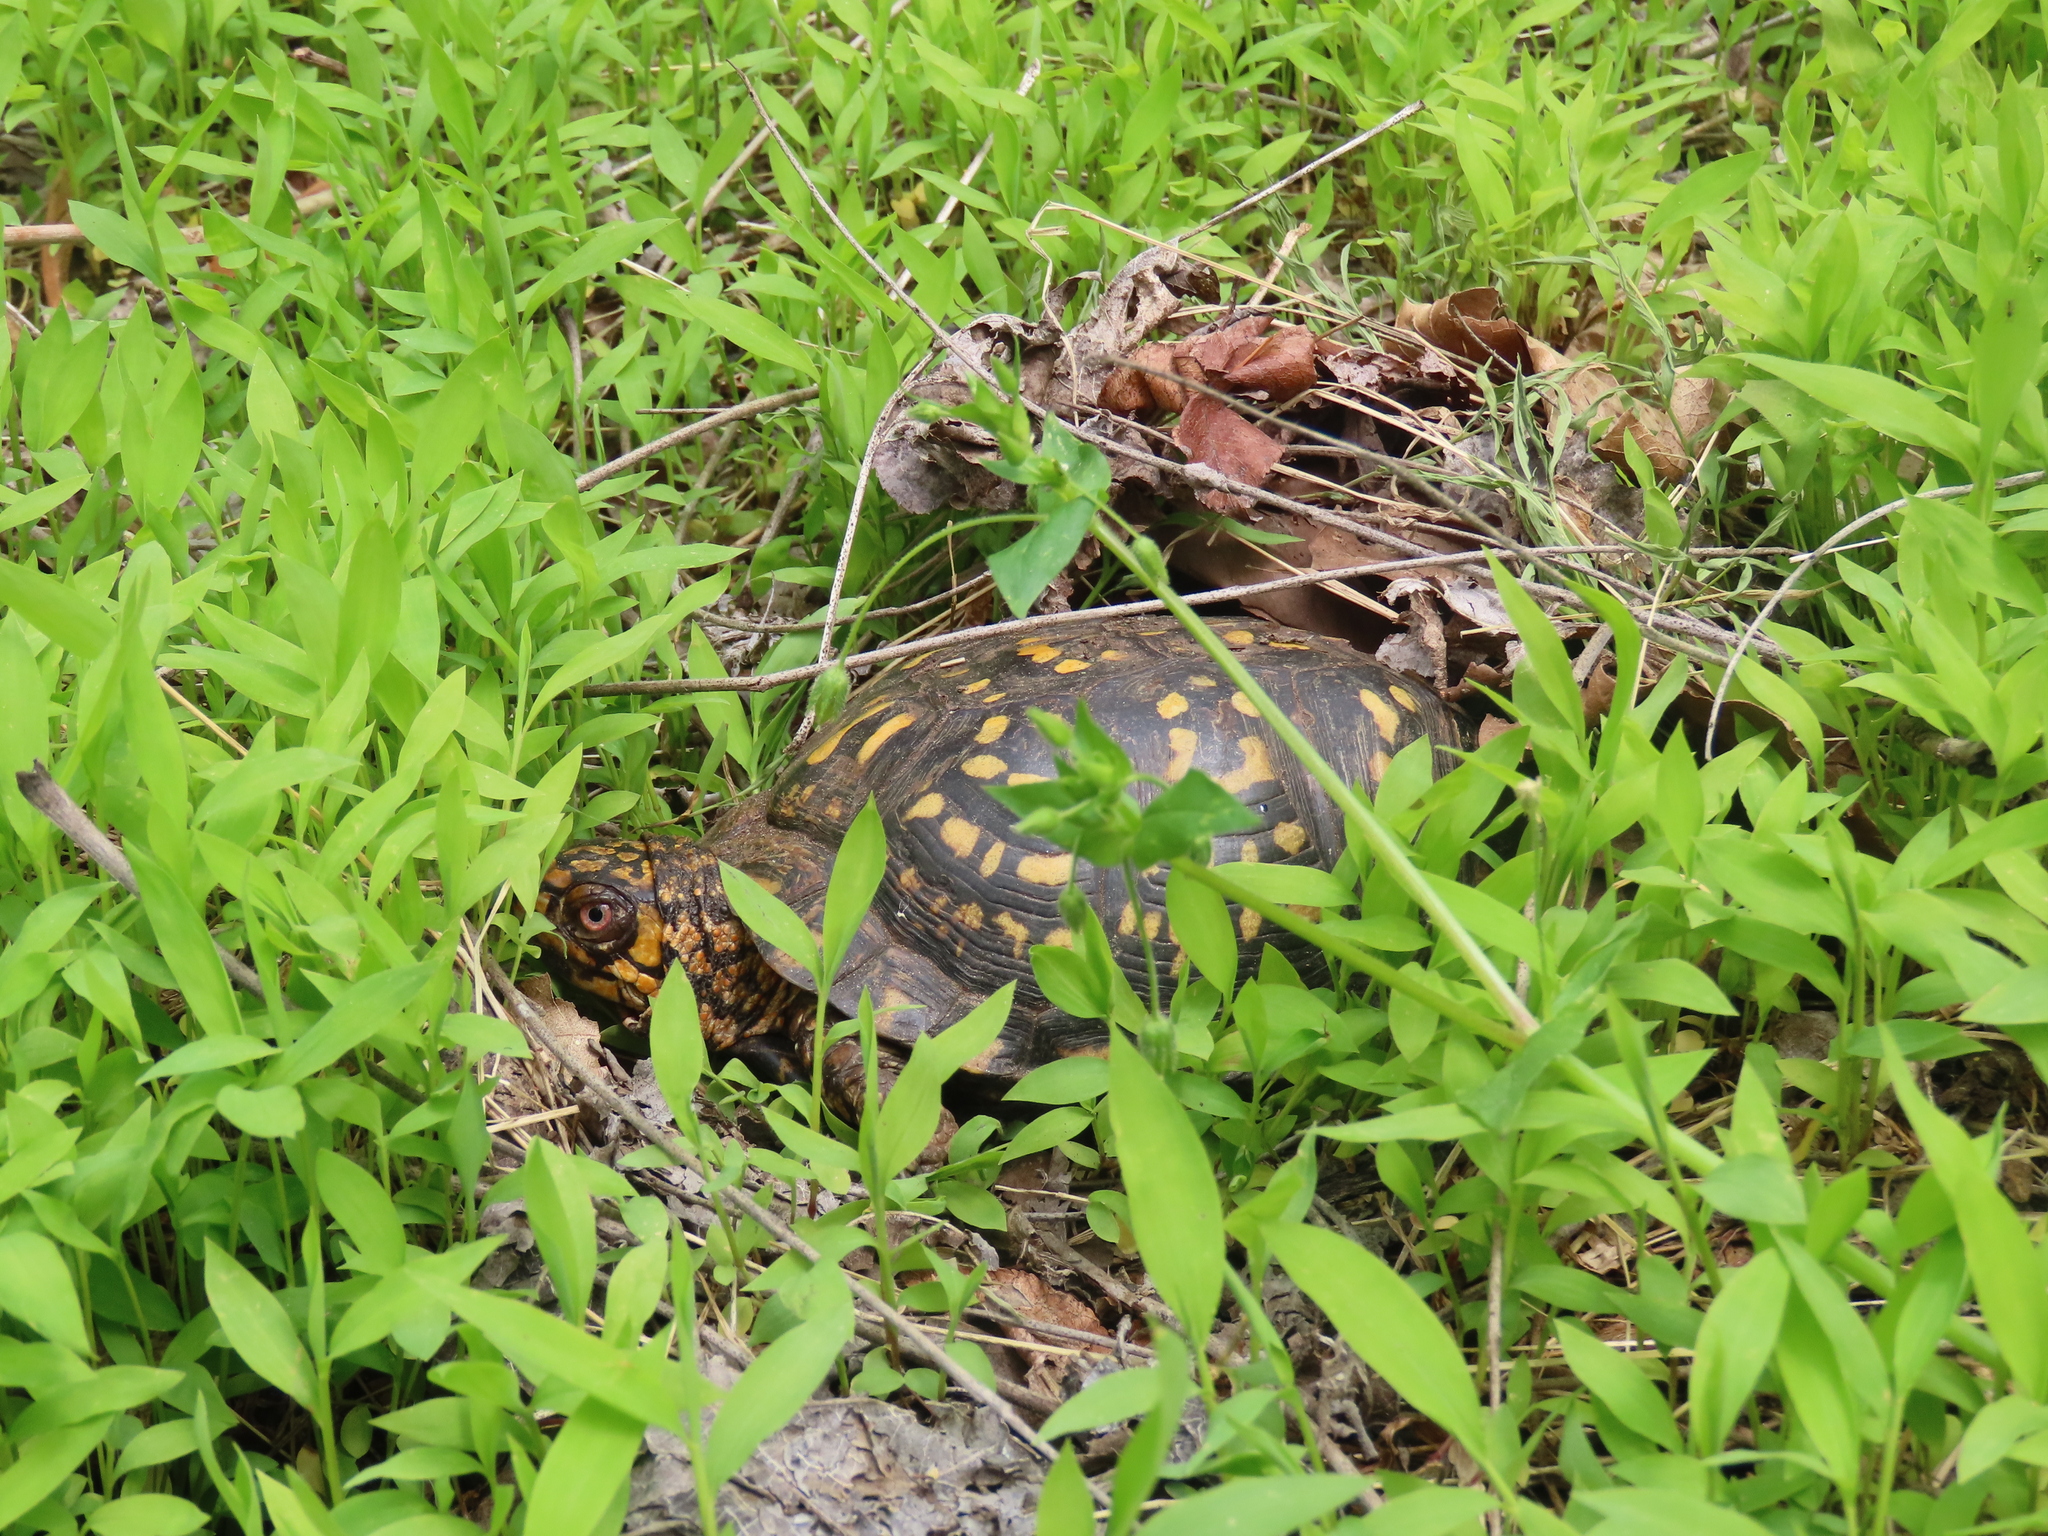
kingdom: Animalia
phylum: Chordata
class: Testudines
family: Emydidae
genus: Terrapene
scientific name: Terrapene carolina
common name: Common box turtle
